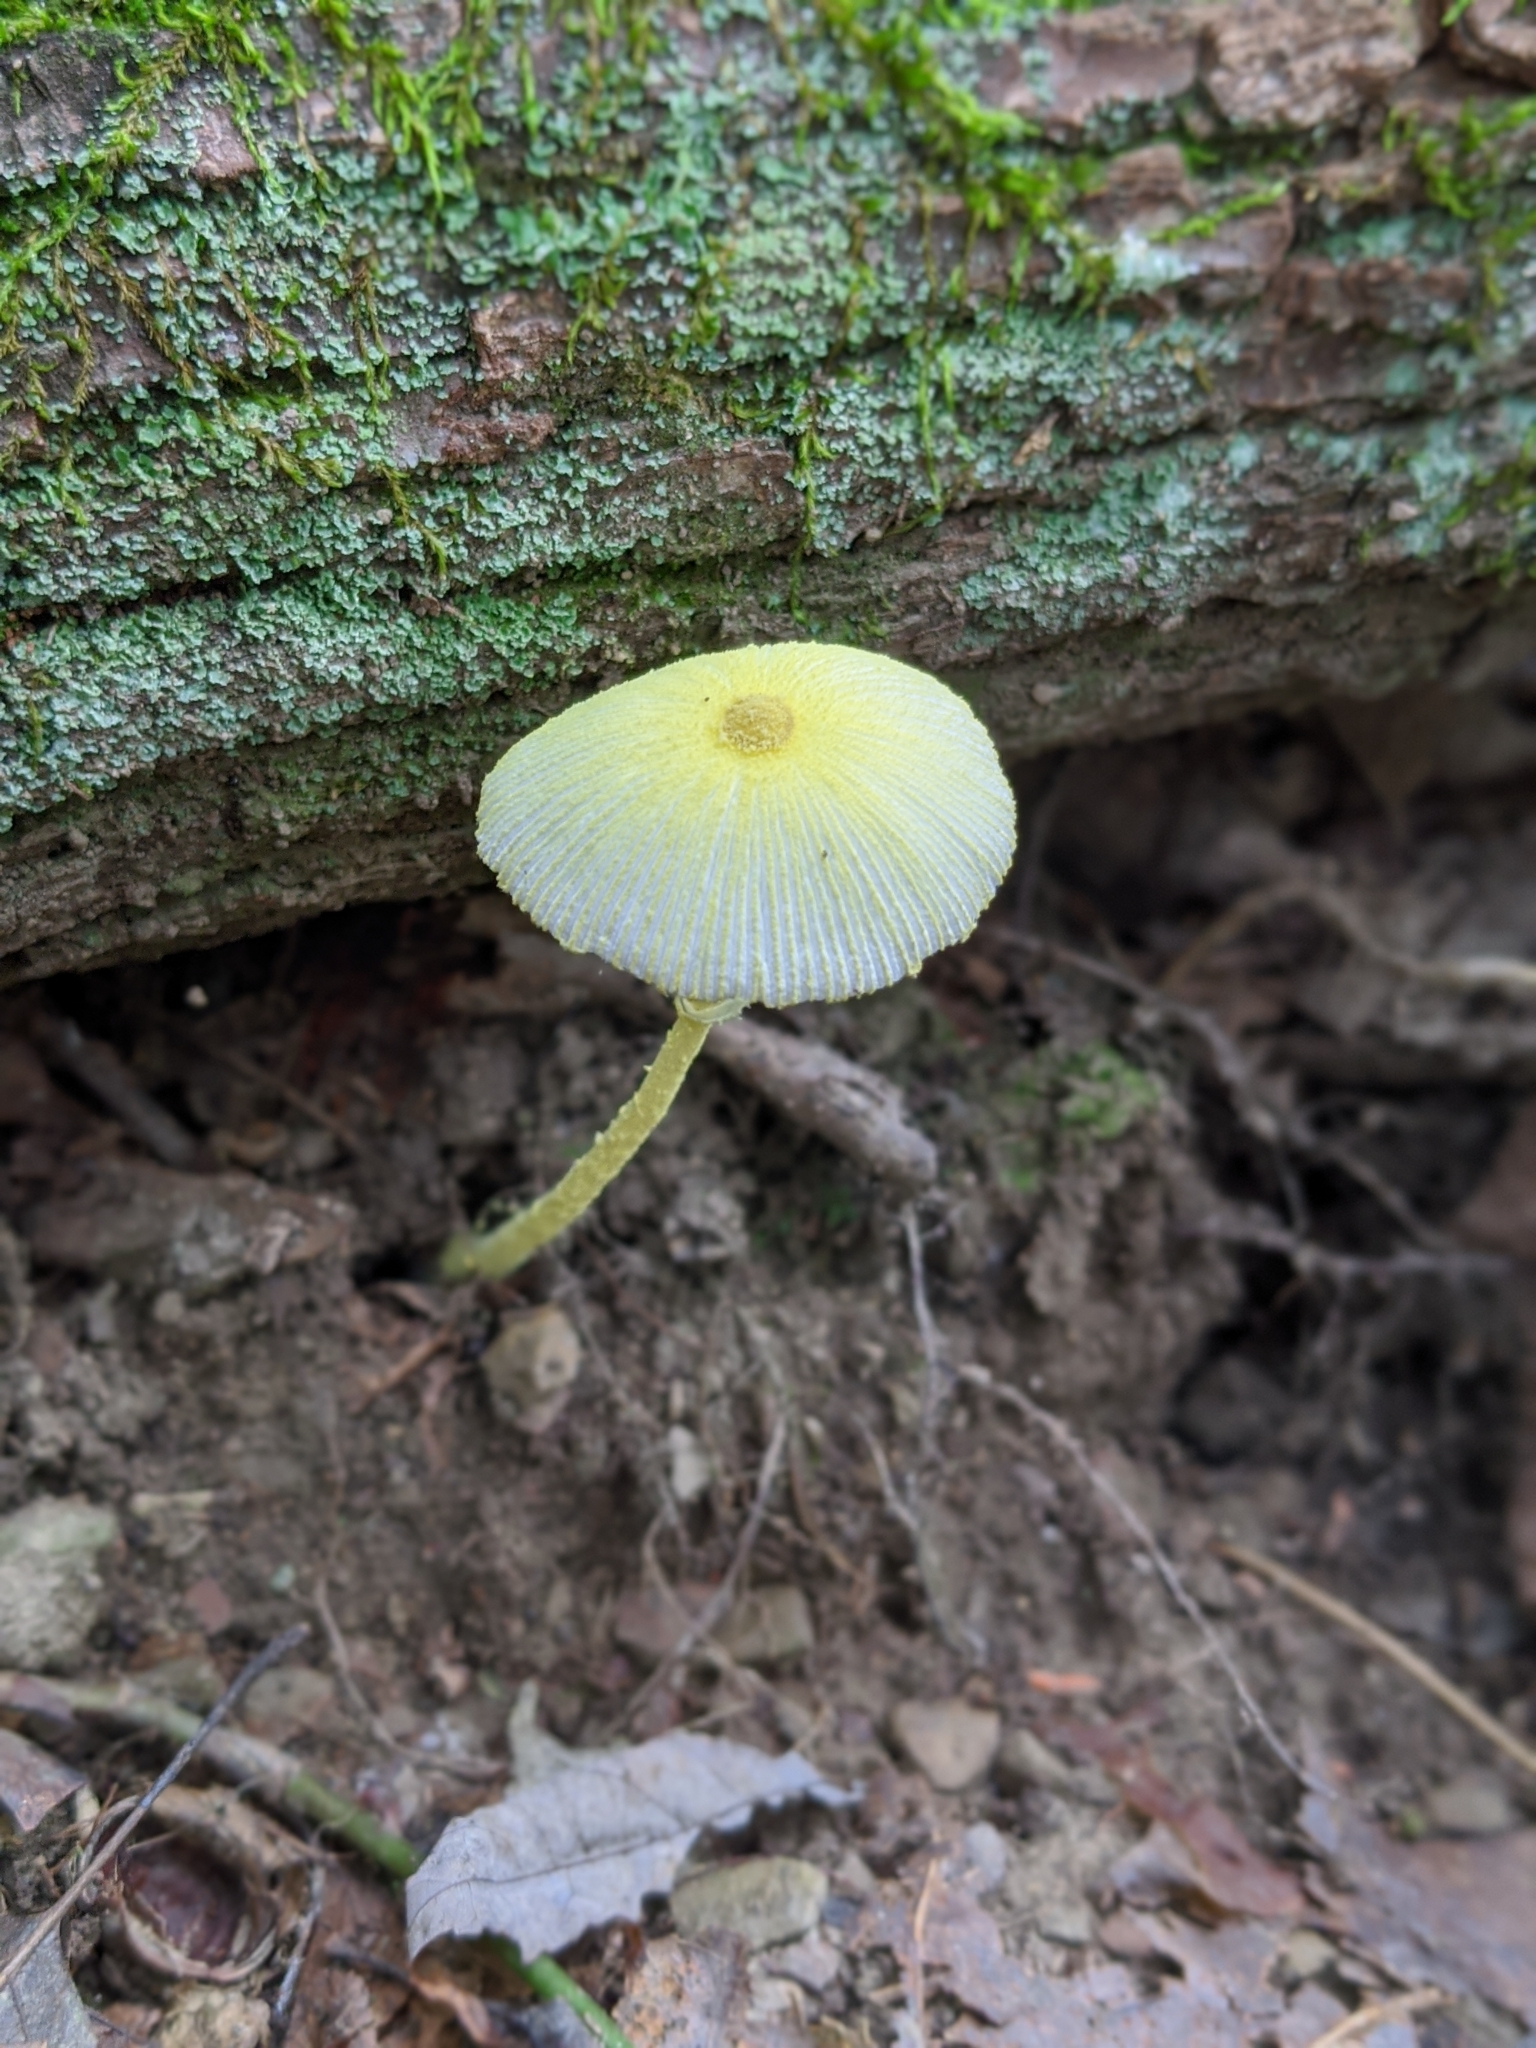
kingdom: Fungi
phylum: Basidiomycota
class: Agaricomycetes
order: Agaricales
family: Agaricaceae
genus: Leucocoprinus
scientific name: Leucocoprinus fragilissimus
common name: Fragile dapperling
